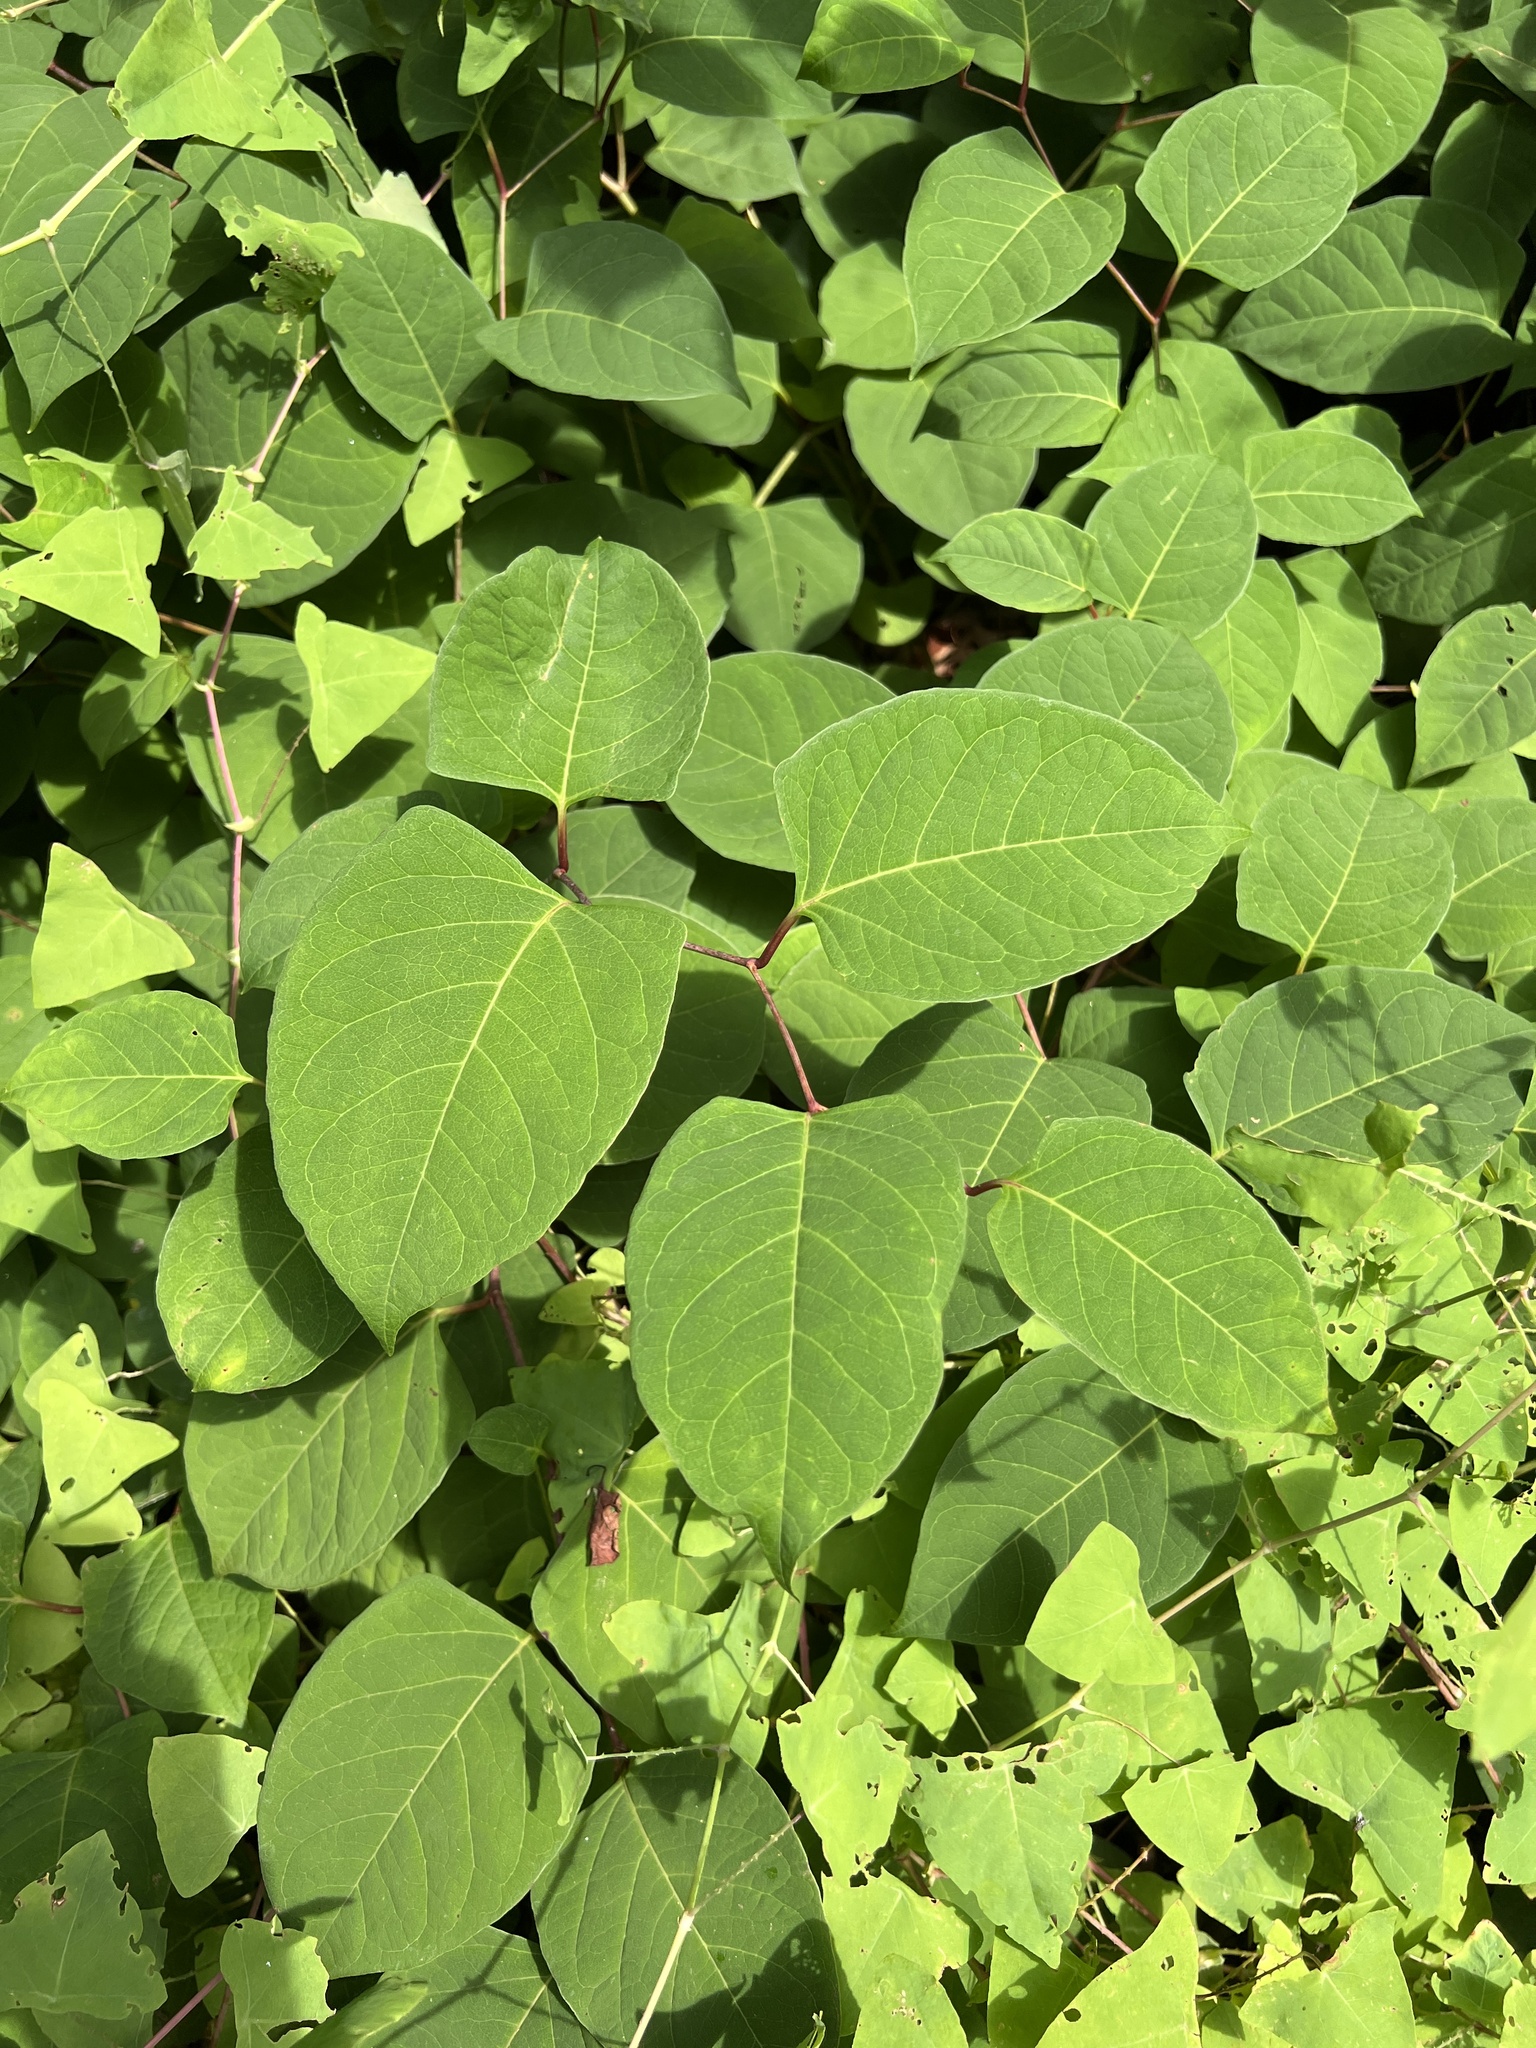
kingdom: Plantae
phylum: Tracheophyta
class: Magnoliopsida
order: Caryophyllales
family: Polygonaceae
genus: Reynoutria
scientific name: Reynoutria
